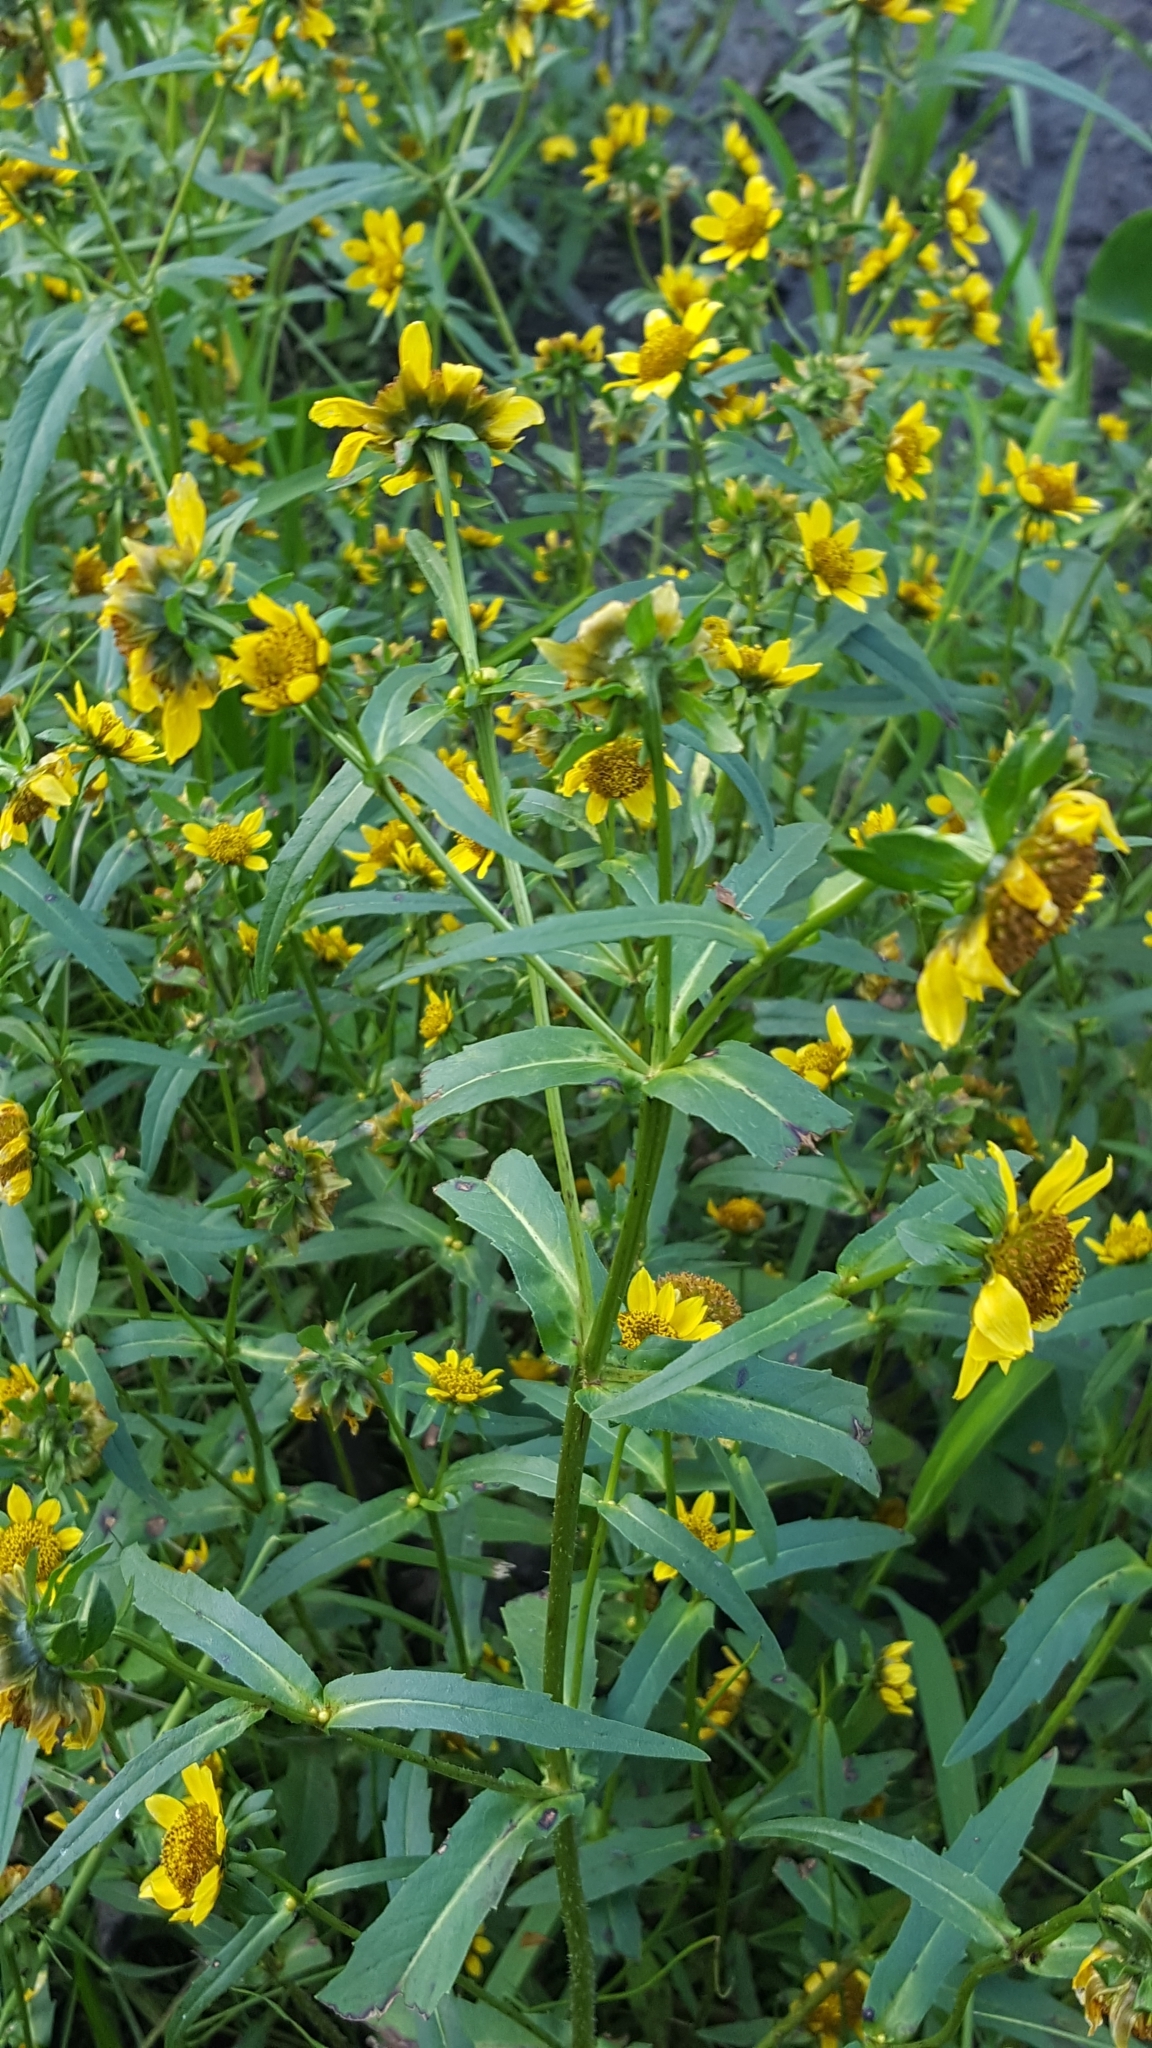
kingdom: Plantae
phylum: Tracheophyta
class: Magnoliopsida
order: Asterales
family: Asteraceae
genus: Bidens
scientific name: Bidens cernua
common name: Nodding bur-marigold
